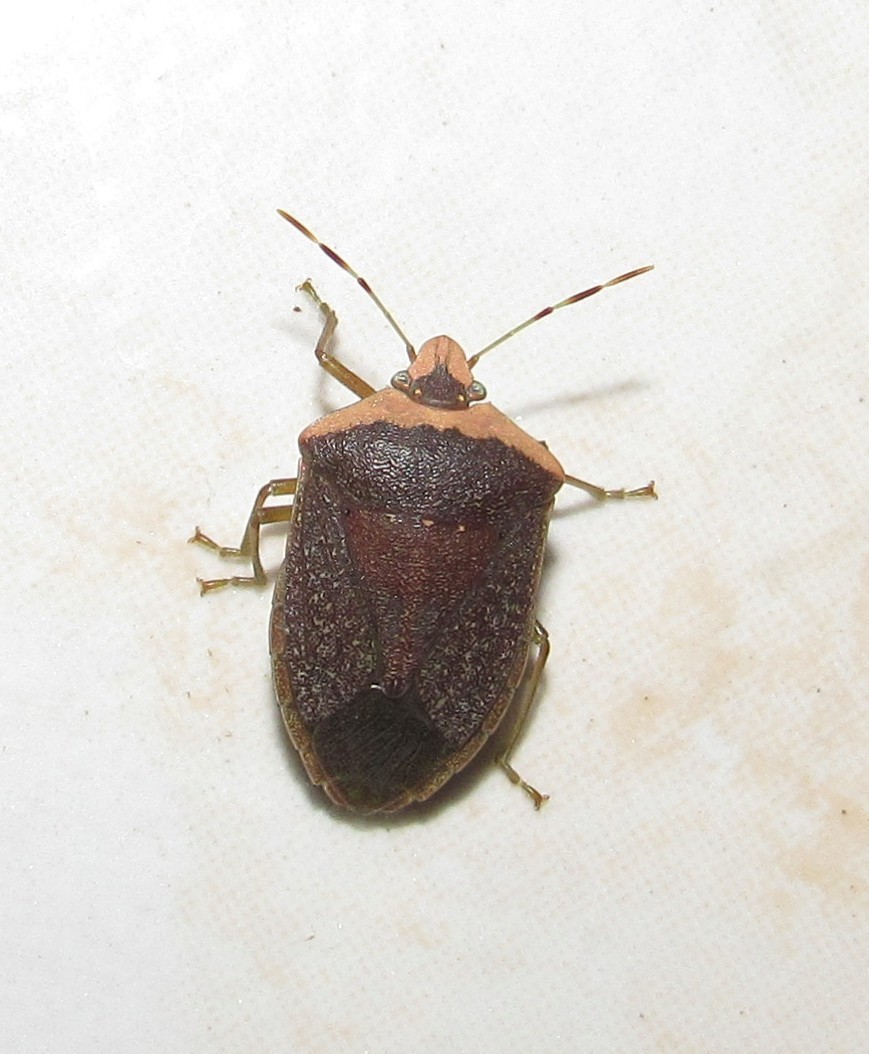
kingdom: Animalia
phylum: Arthropoda
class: Insecta
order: Hemiptera
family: Pentatomidae
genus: Nezara
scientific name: Nezara viridula
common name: Southern green stink bug
